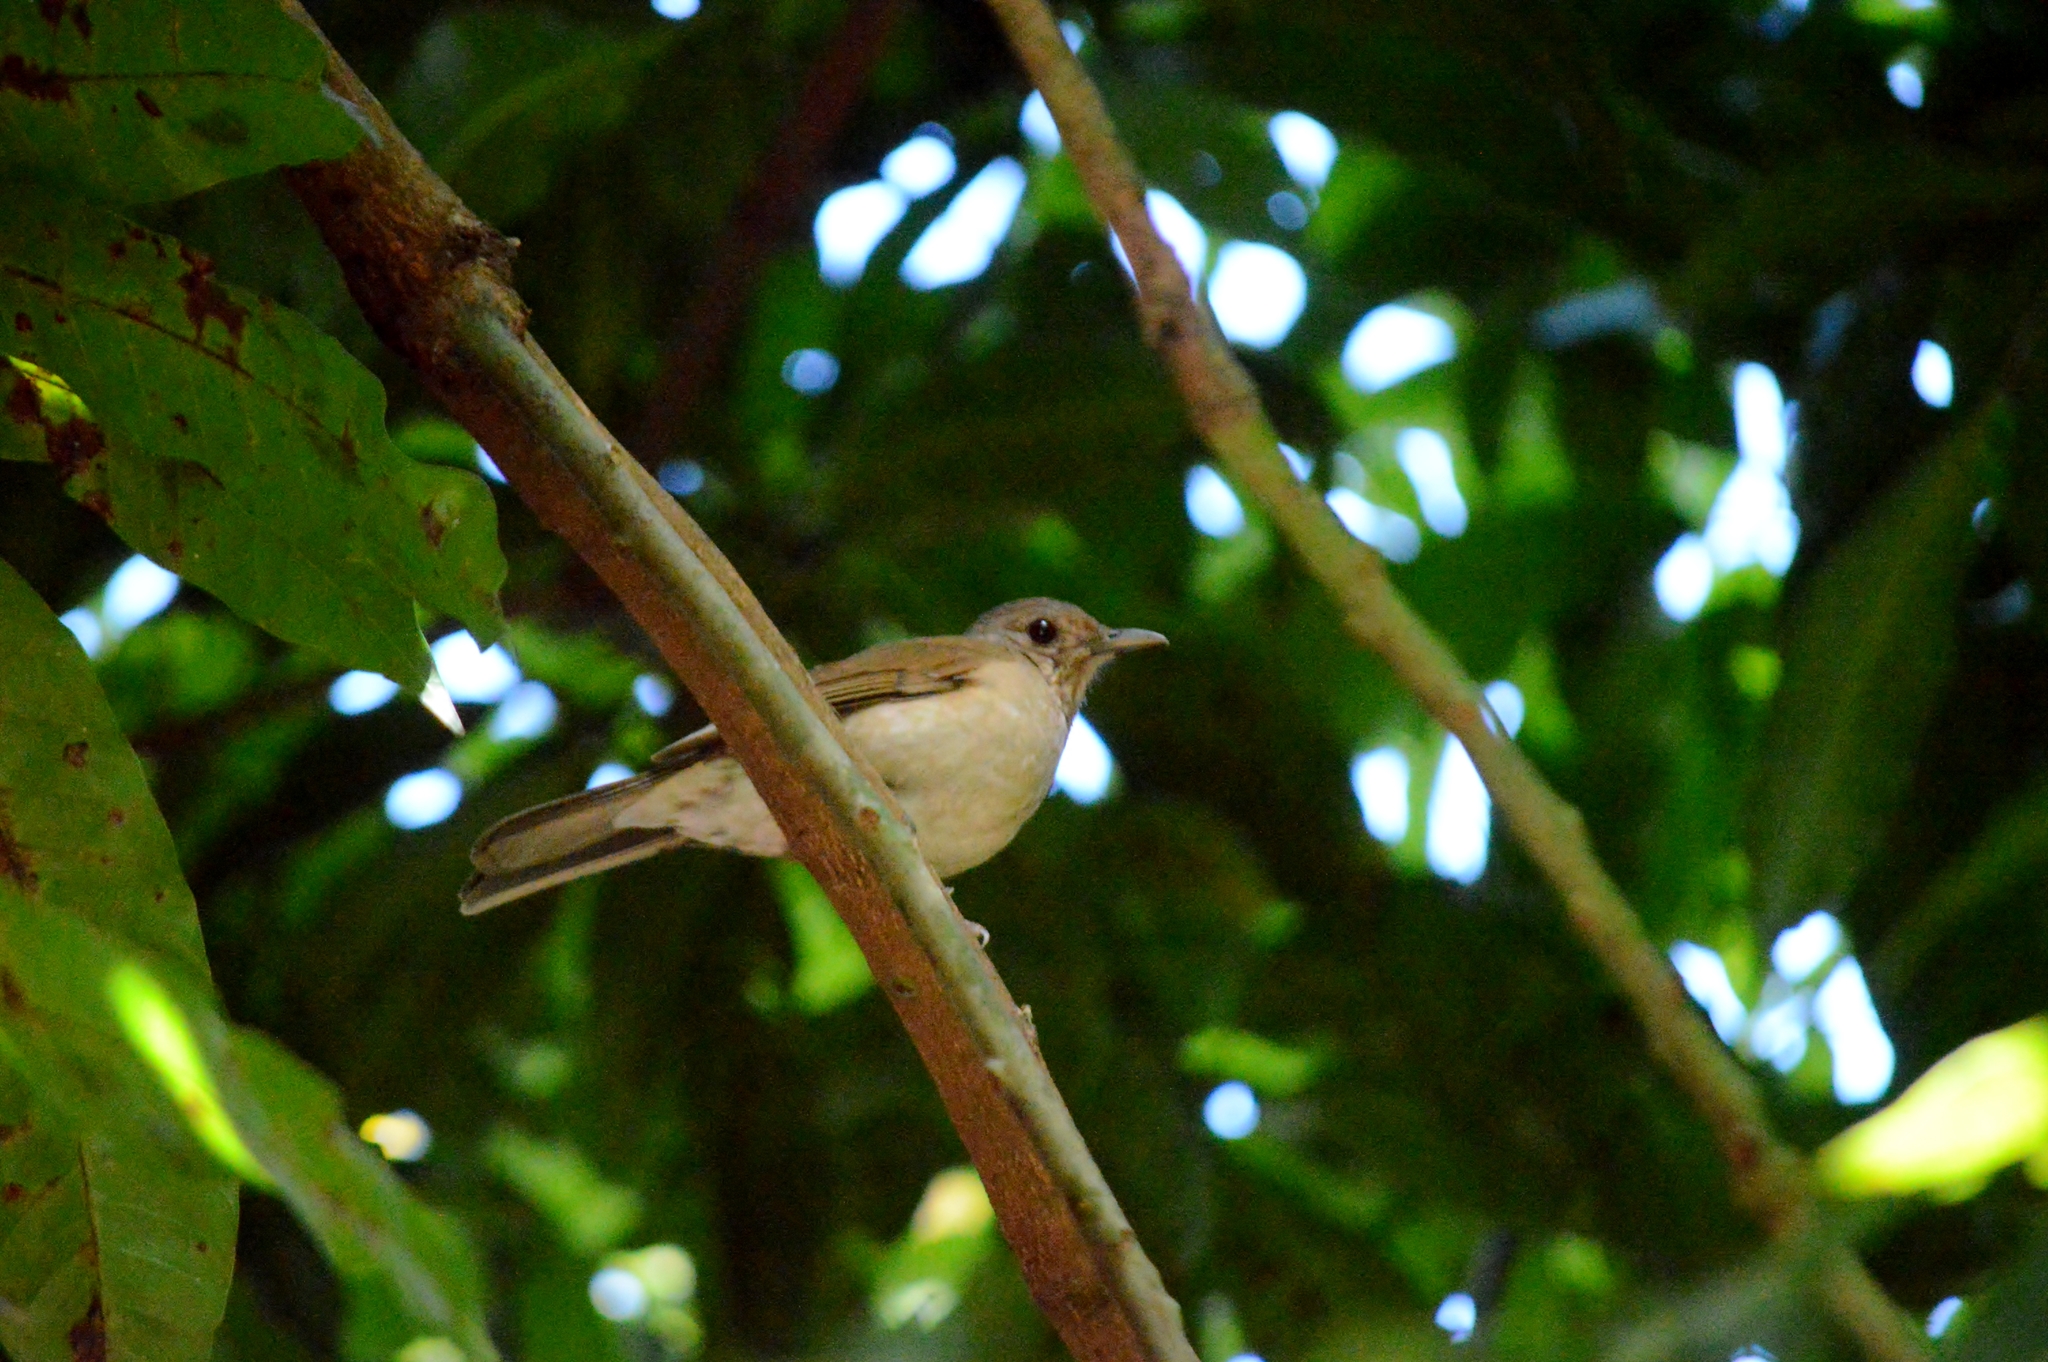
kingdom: Animalia
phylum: Chordata
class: Aves
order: Passeriformes
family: Turdidae
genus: Turdus
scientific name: Turdus leucomelas
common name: Pale-breasted thrush
